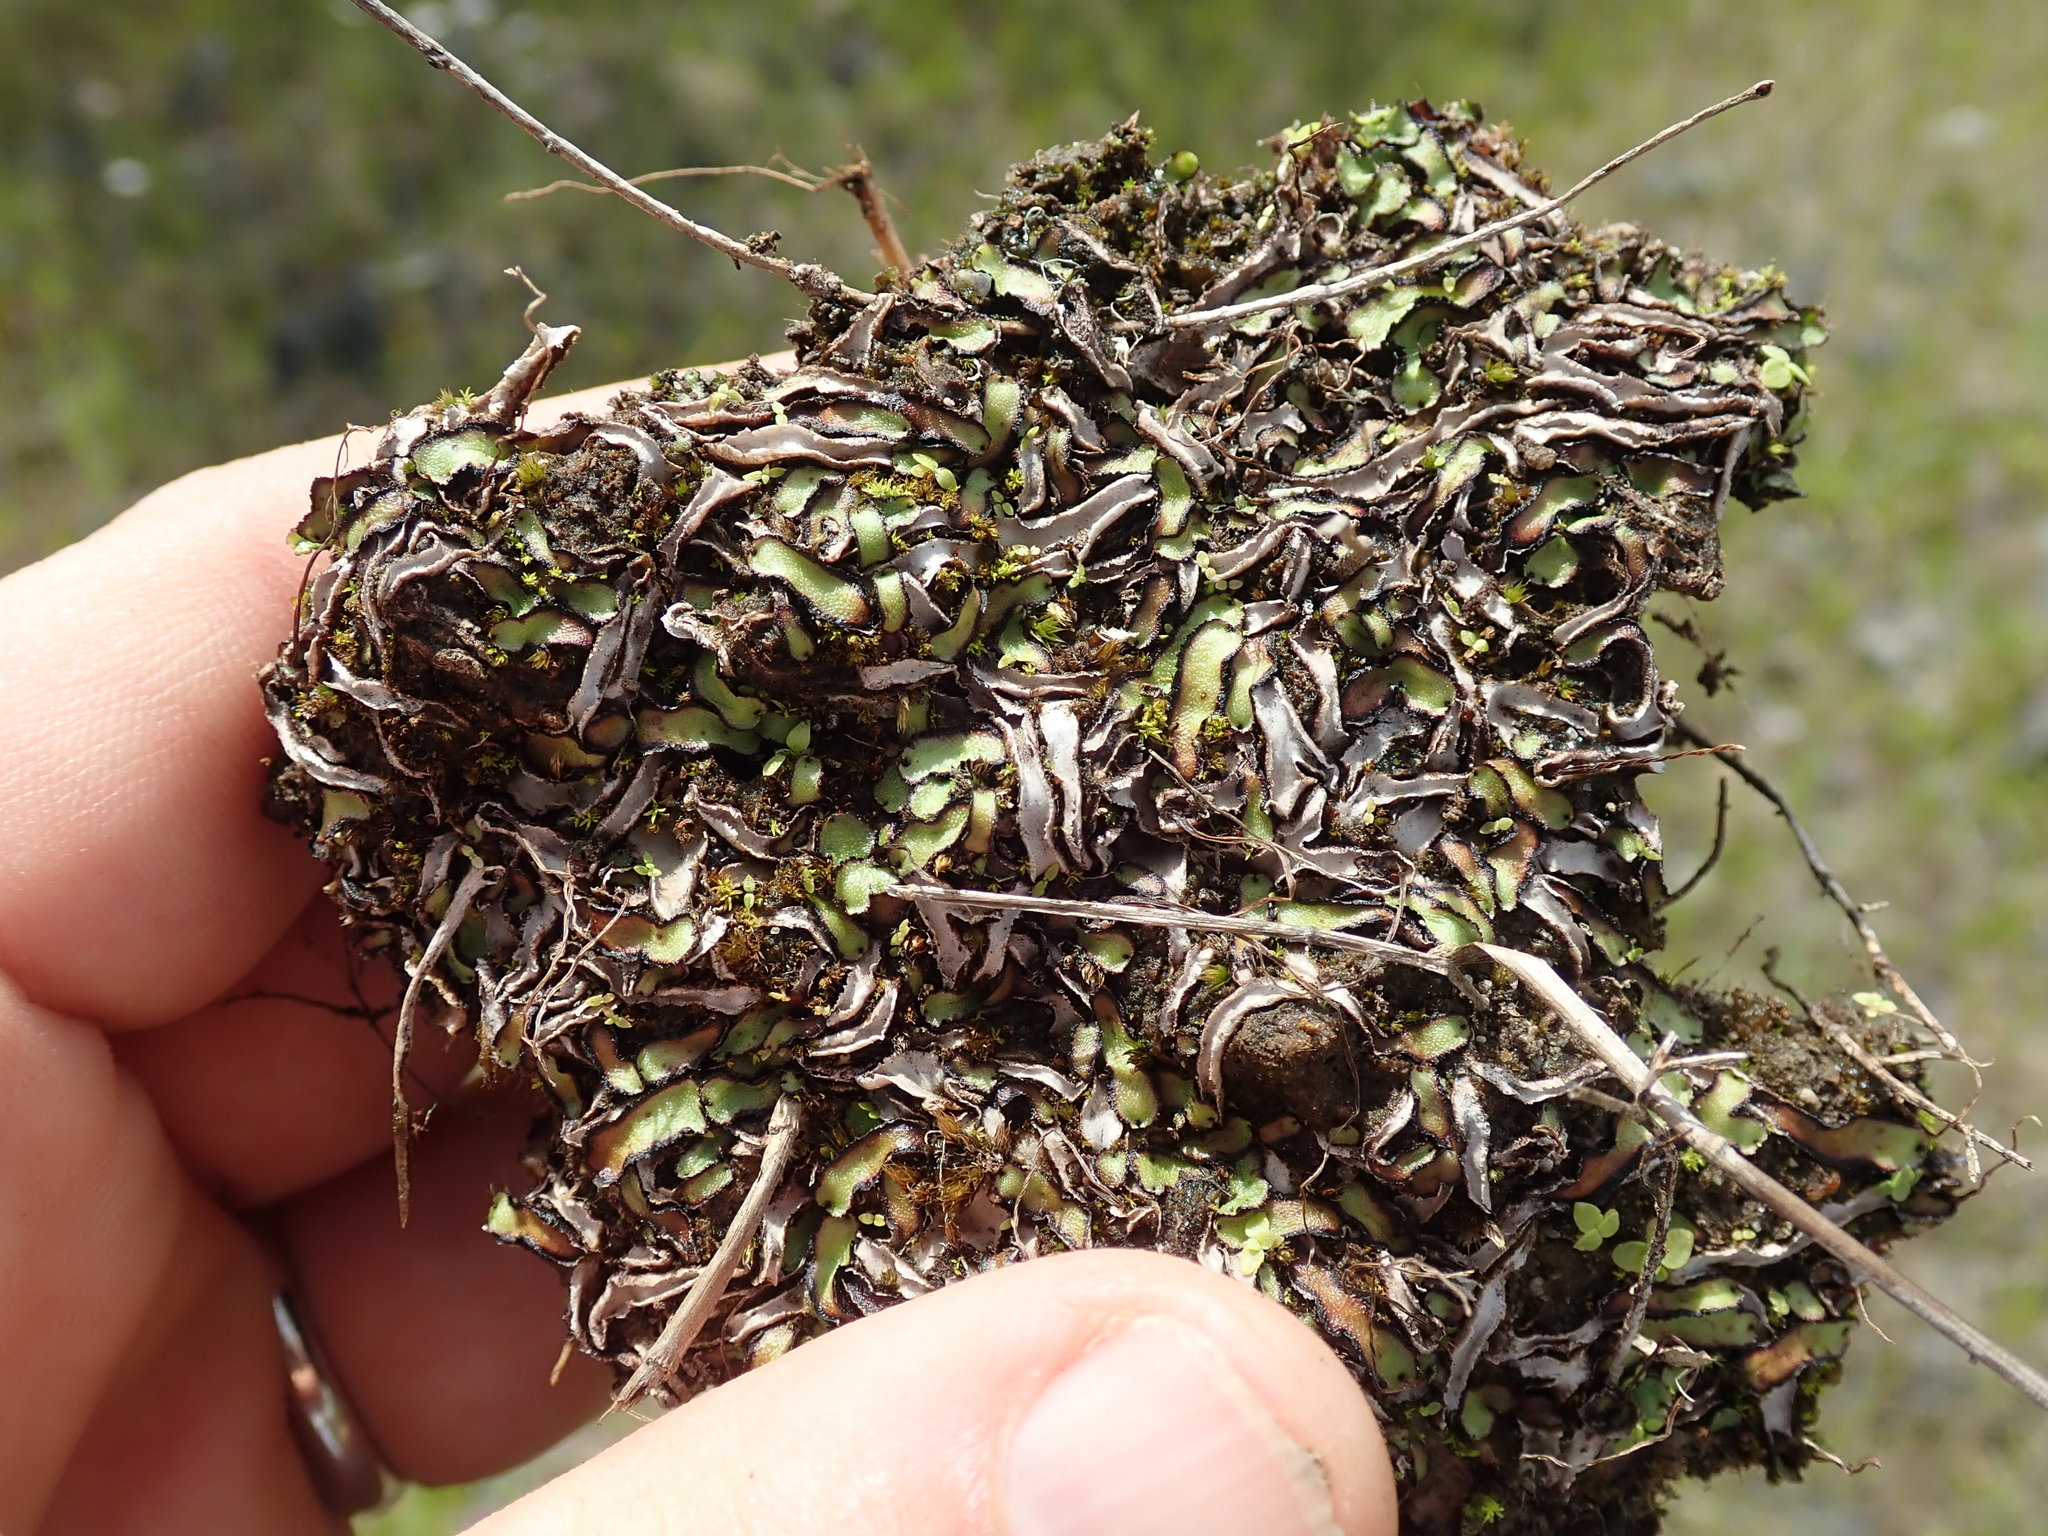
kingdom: Plantae
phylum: Marchantiophyta
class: Marchantiopsida
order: Marchantiales
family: Aytoniaceae
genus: Reboulia
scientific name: Reboulia hemisphaerica
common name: Purple-margined liverwort
